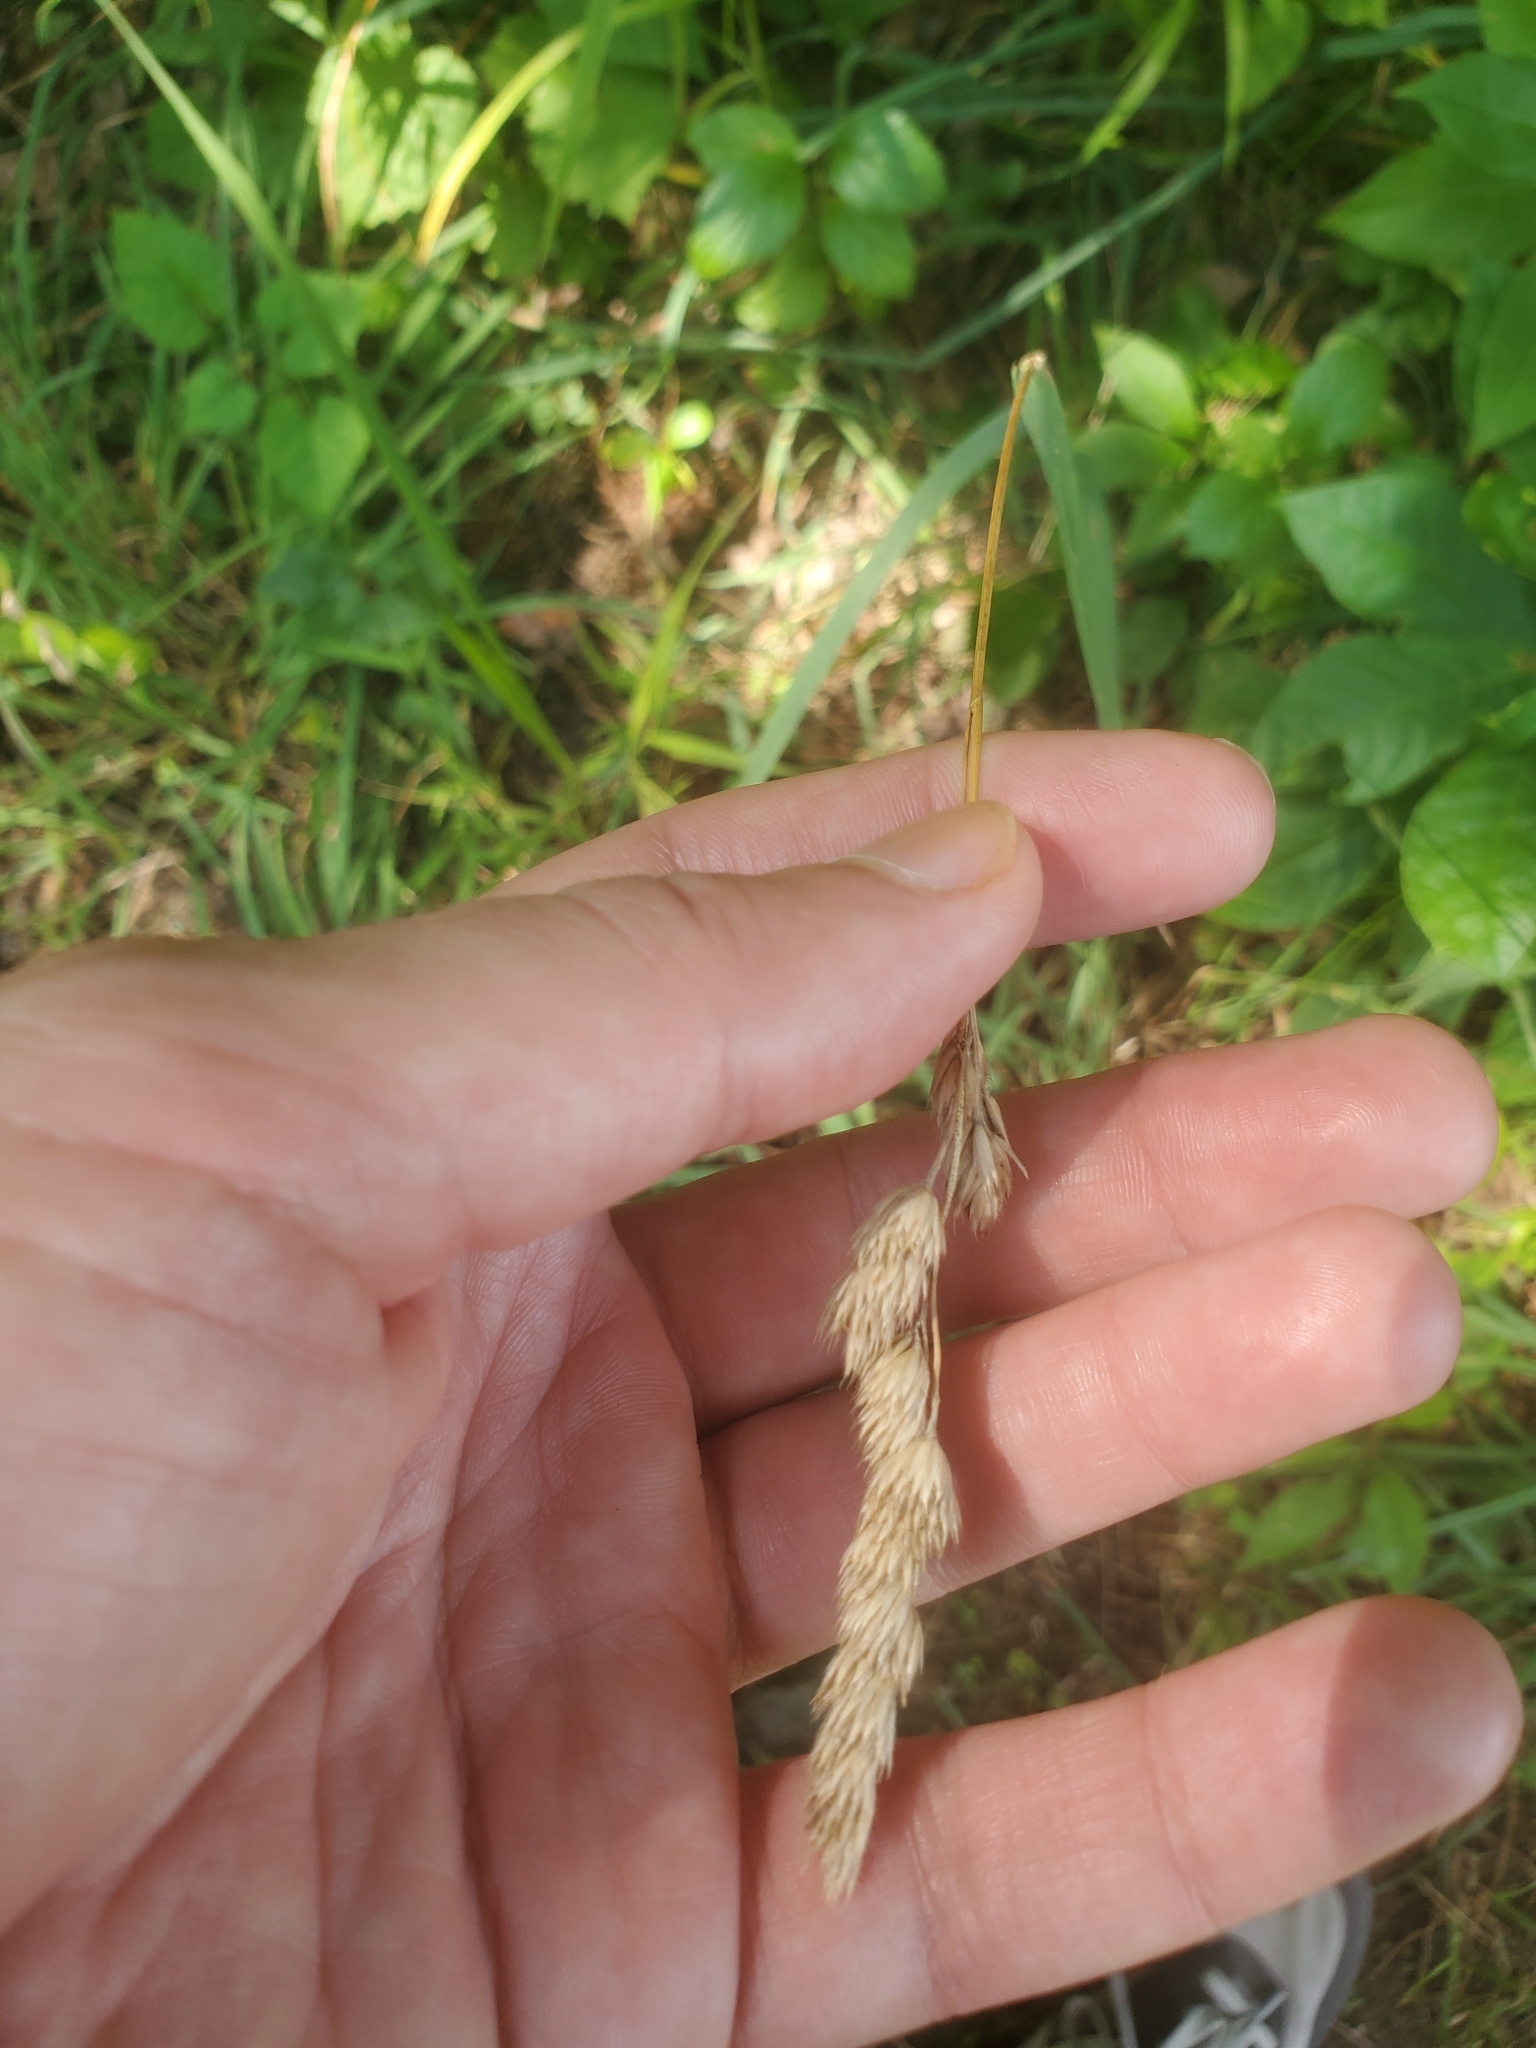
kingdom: Plantae
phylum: Tracheophyta
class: Liliopsida
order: Poales
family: Poaceae
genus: Dactylis
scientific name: Dactylis glomerata
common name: Orchardgrass
